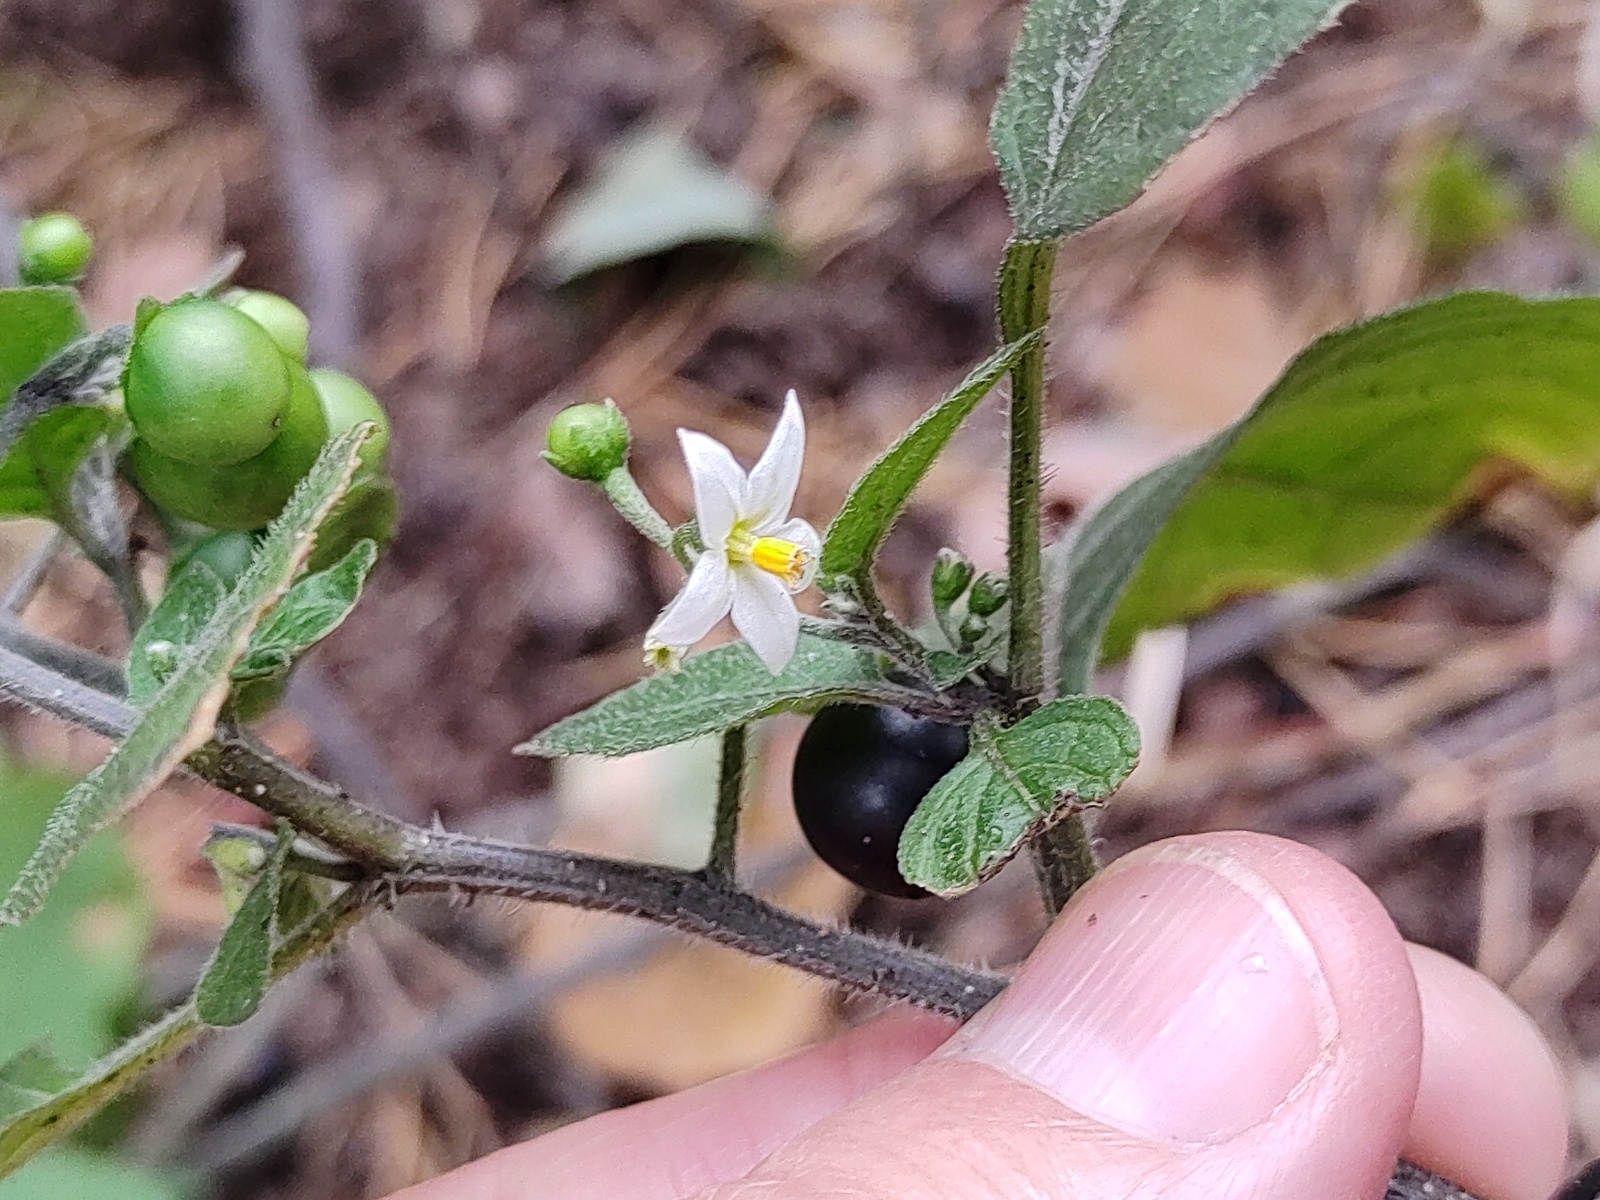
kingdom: Plantae
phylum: Tracheophyta
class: Magnoliopsida
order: Solanales
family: Solanaceae
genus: Solanum
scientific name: Solanum nigrum
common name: Black nightshade
